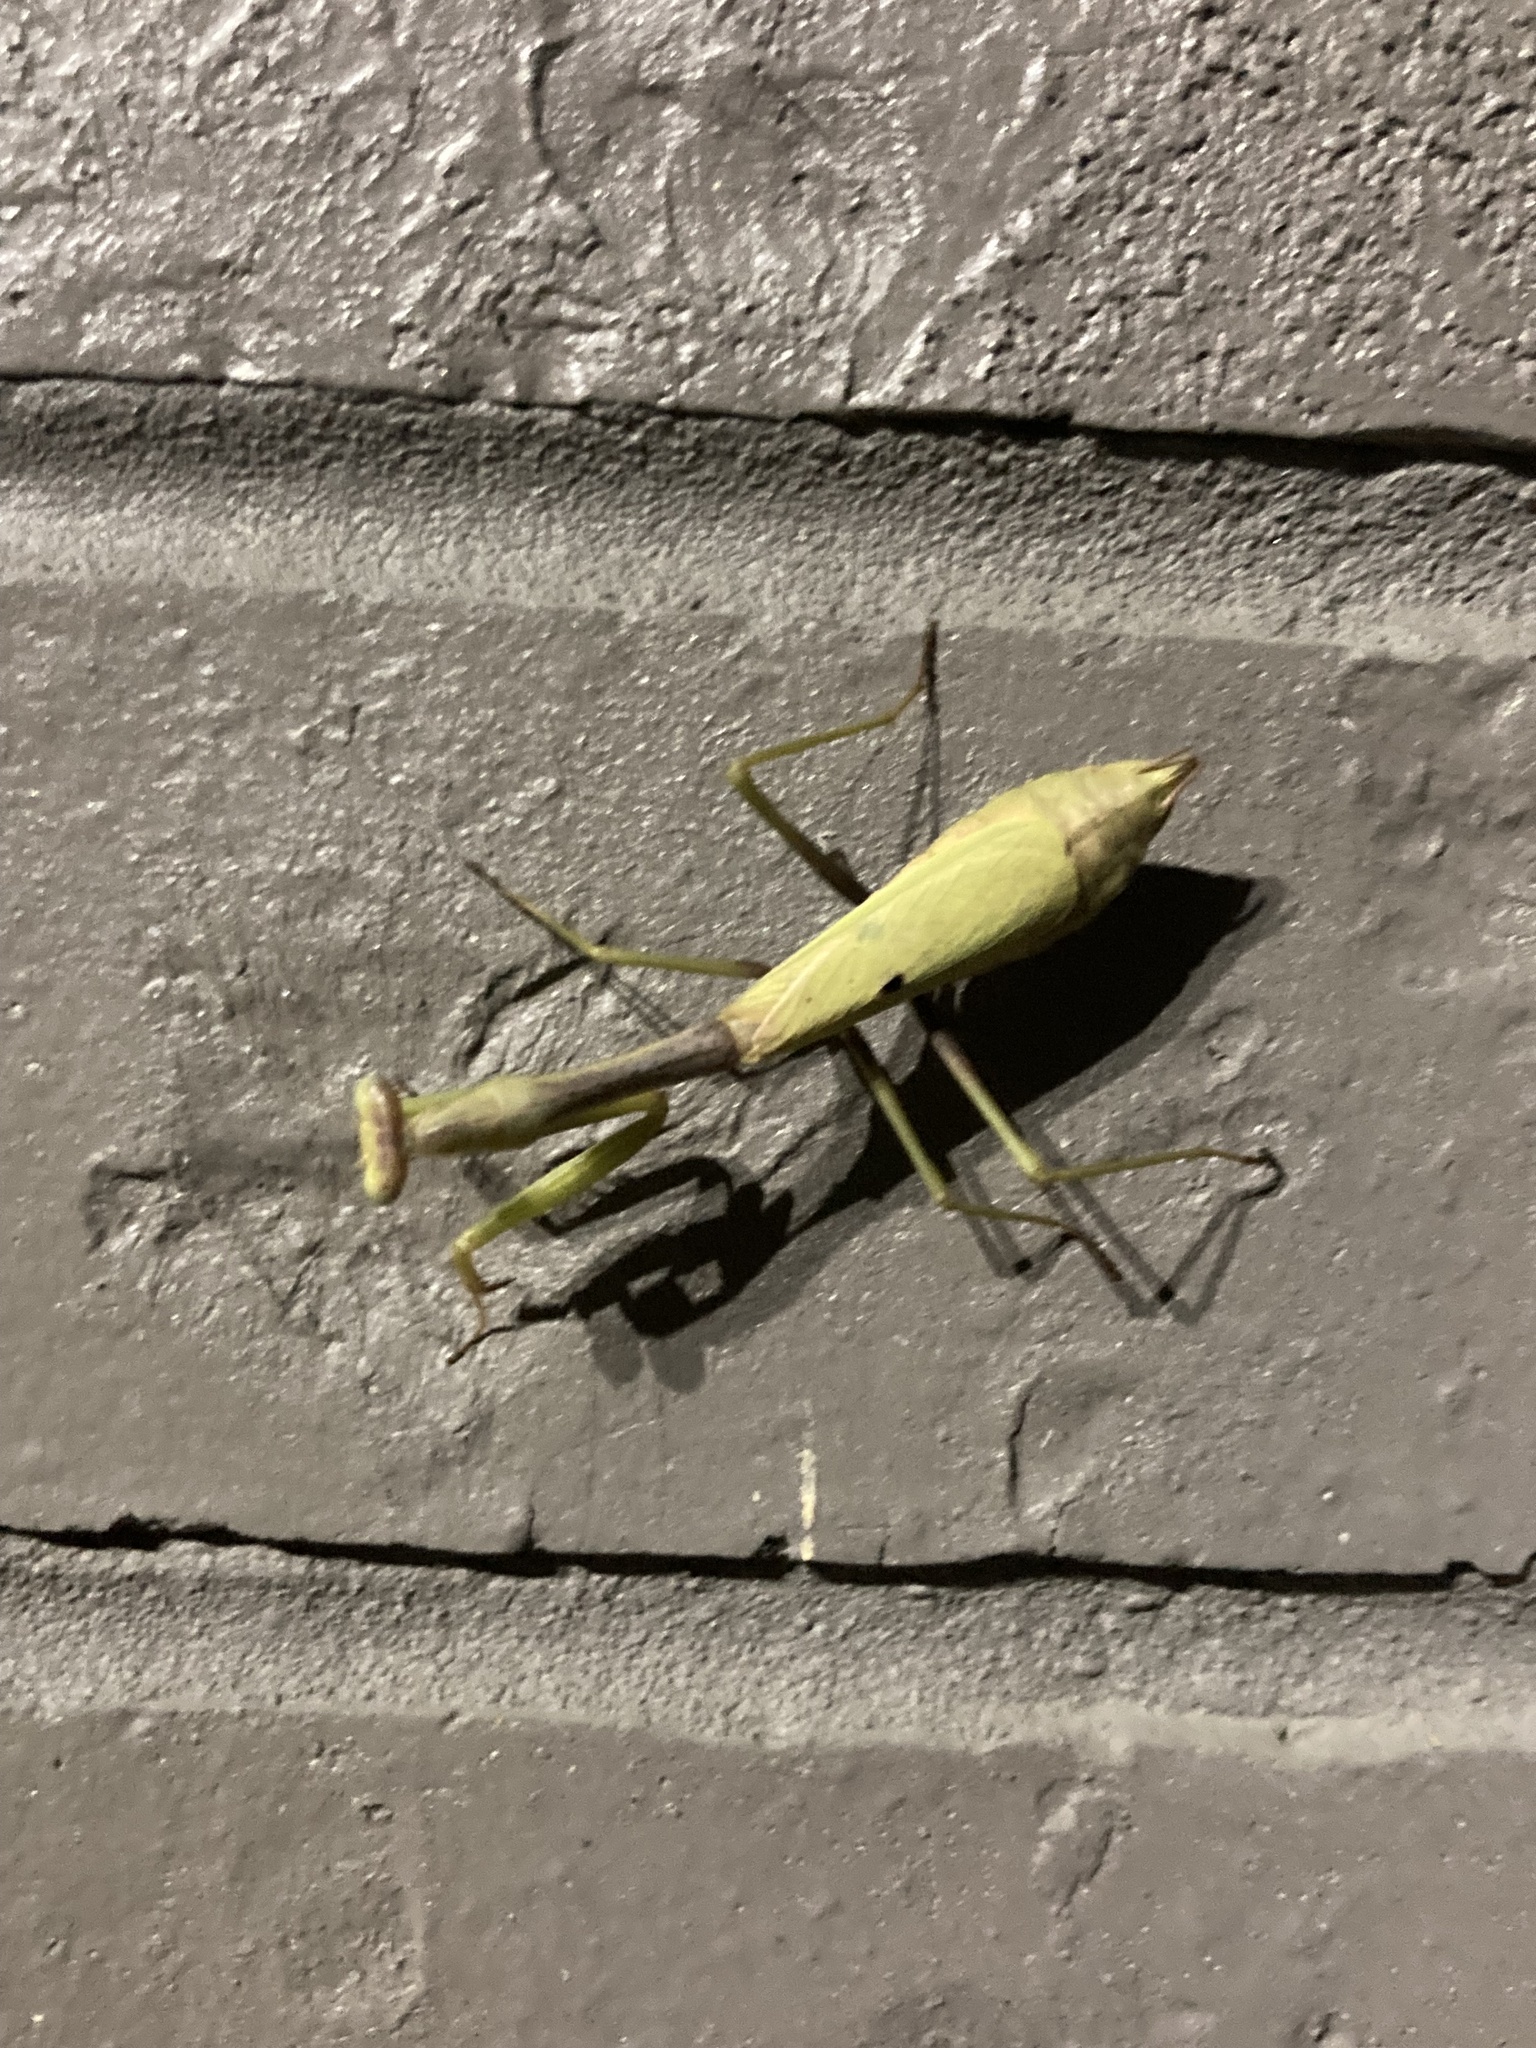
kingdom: Animalia
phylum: Arthropoda
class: Insecta
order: Mantodea
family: Mantidae
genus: Stagmomantis
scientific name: Stagmomantis carolina
